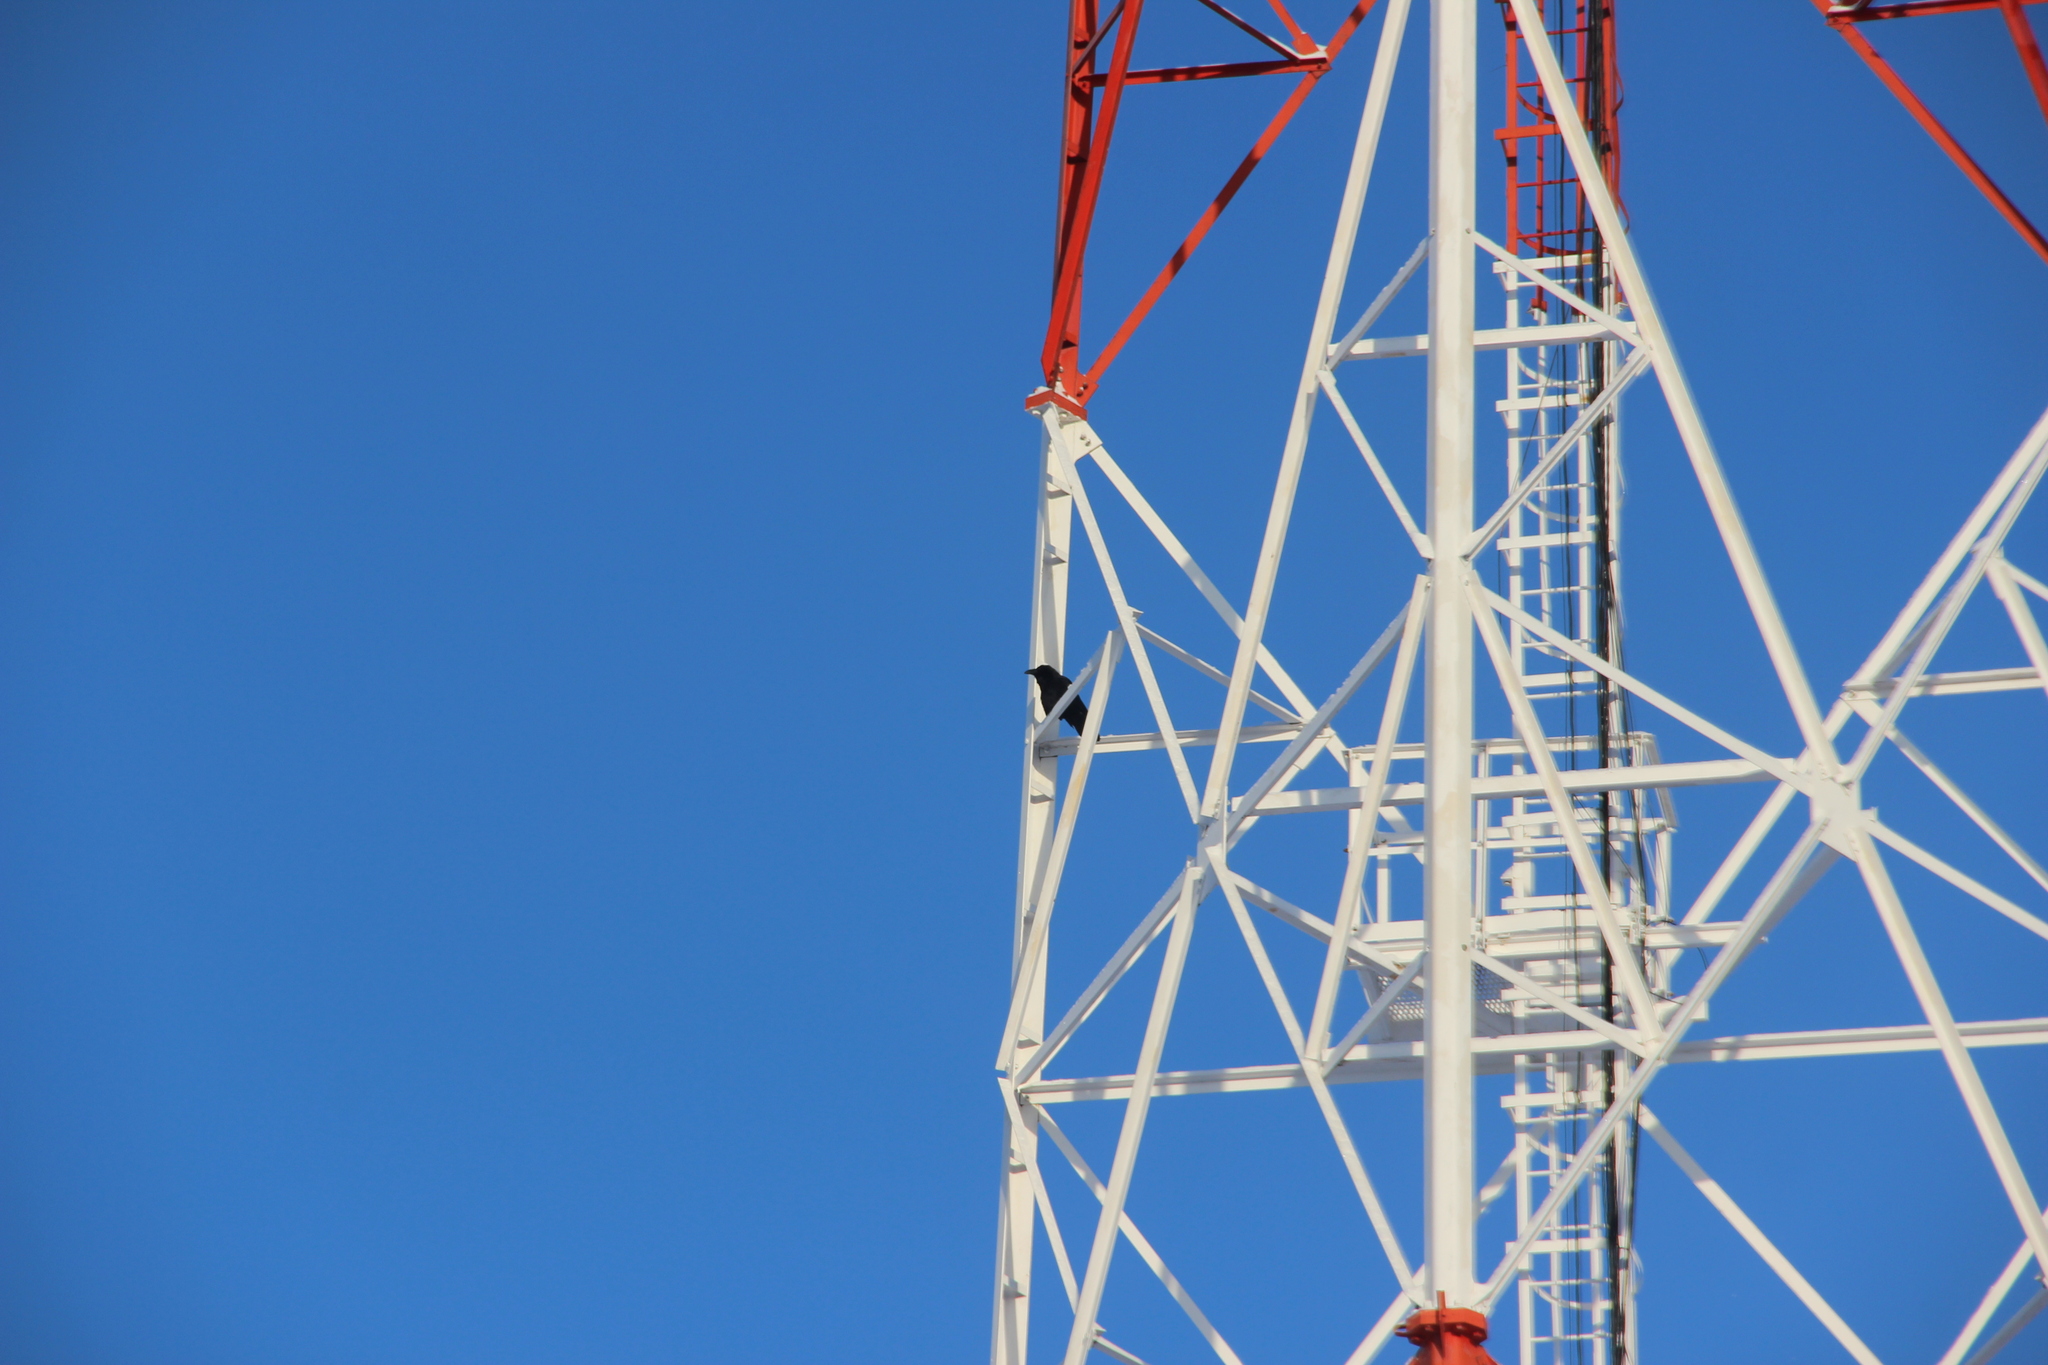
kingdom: Animalia
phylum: Chordata
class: Aves
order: Passeriformes
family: Corvidae
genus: Corvus
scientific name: Corvus corax
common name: Common raven
